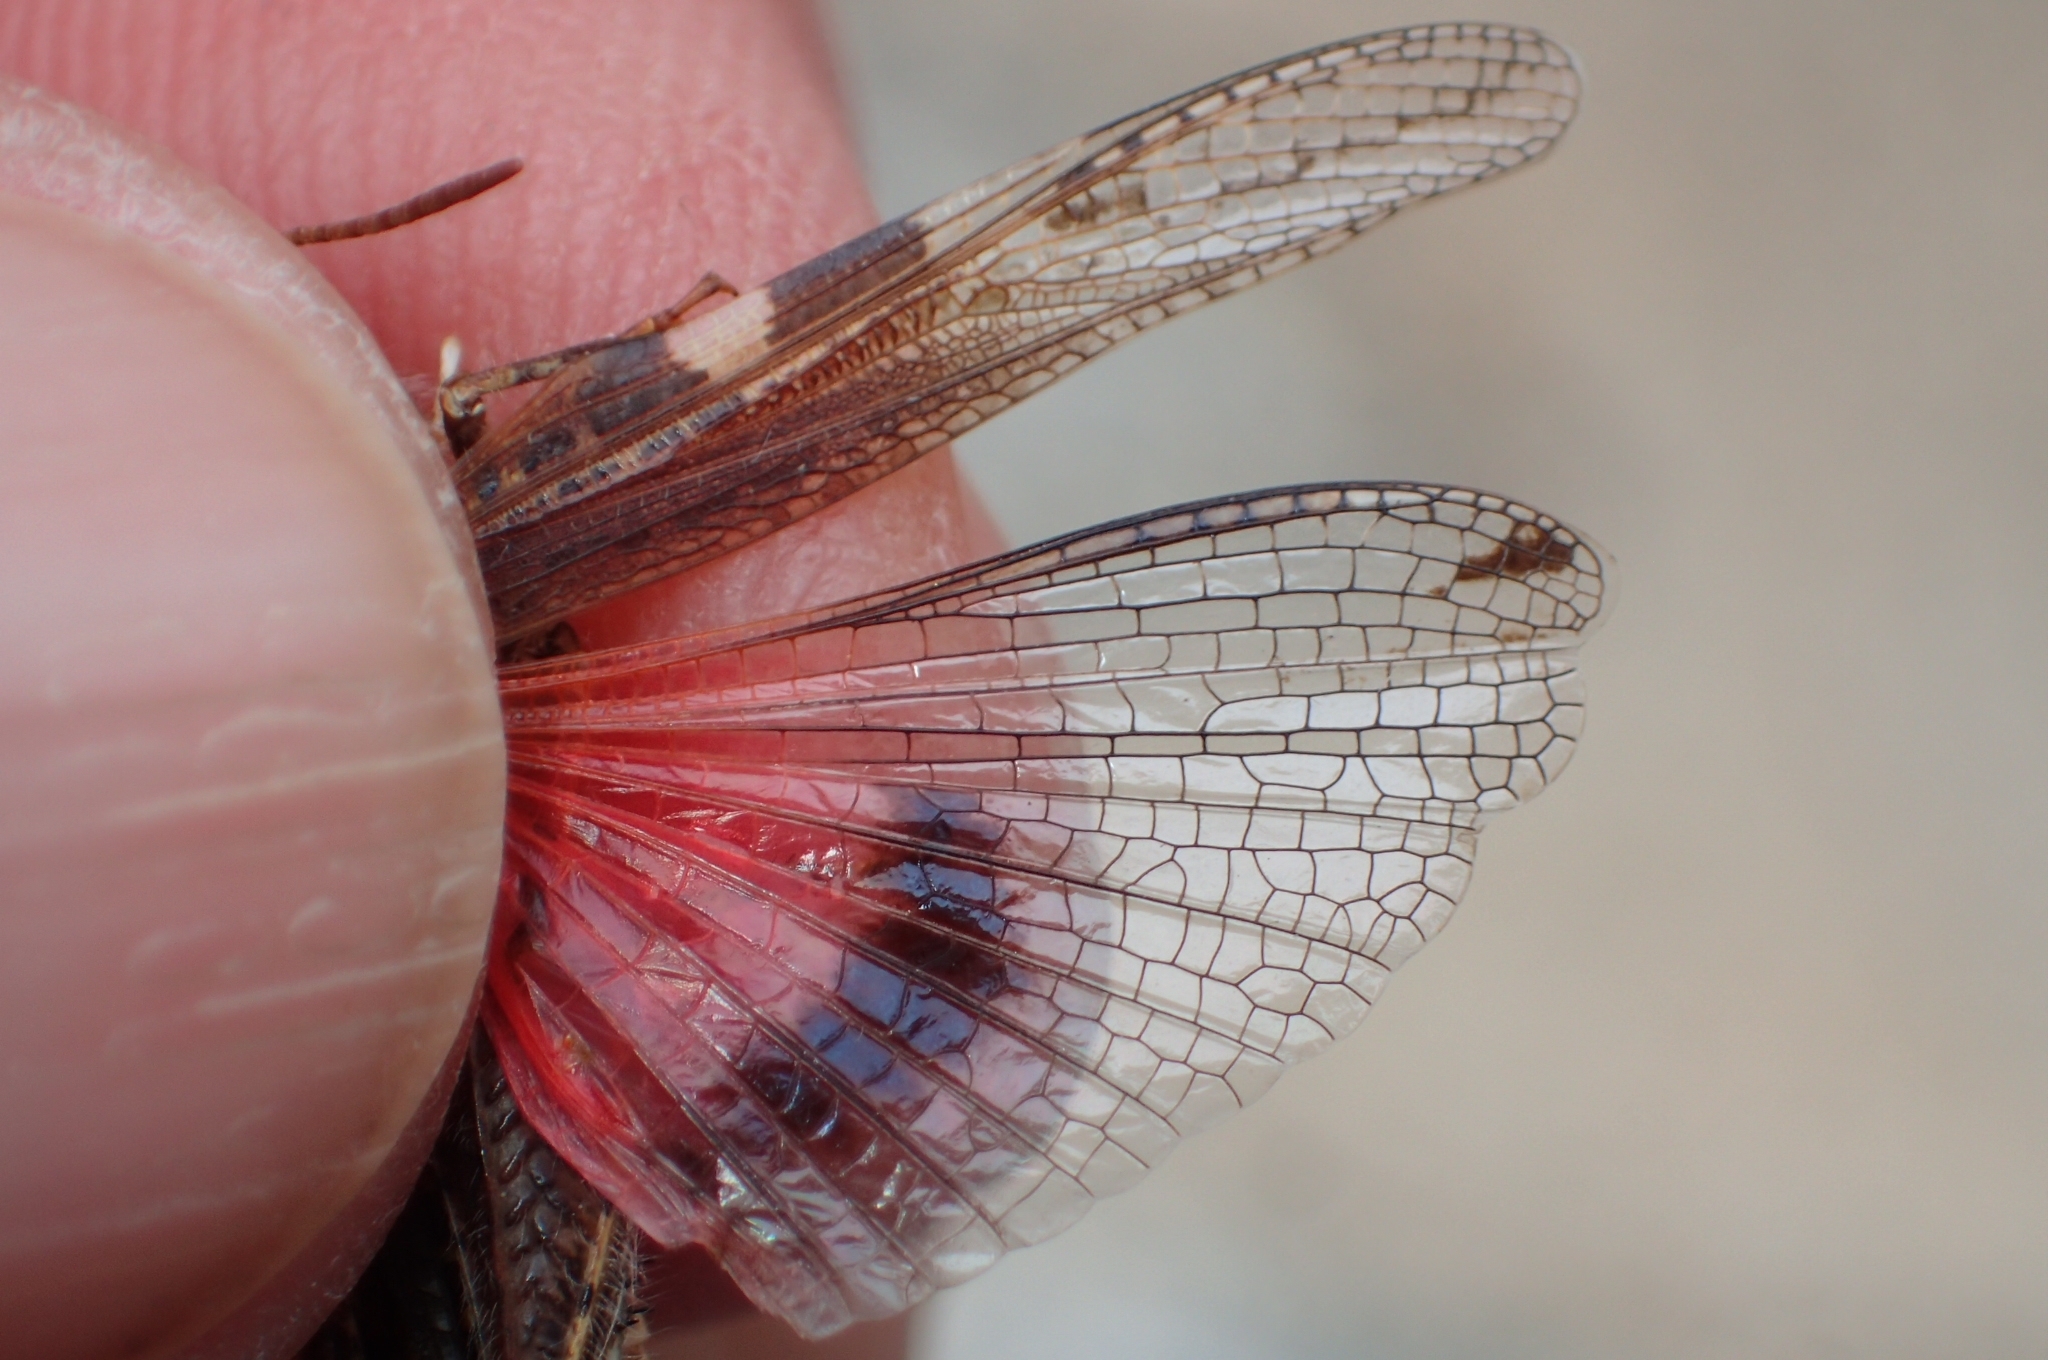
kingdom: Animalia
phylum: Arthropoda
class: Insecta
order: Orthoptera
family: Acrididae
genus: Acrotylus
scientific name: Acrotylus insubricus
